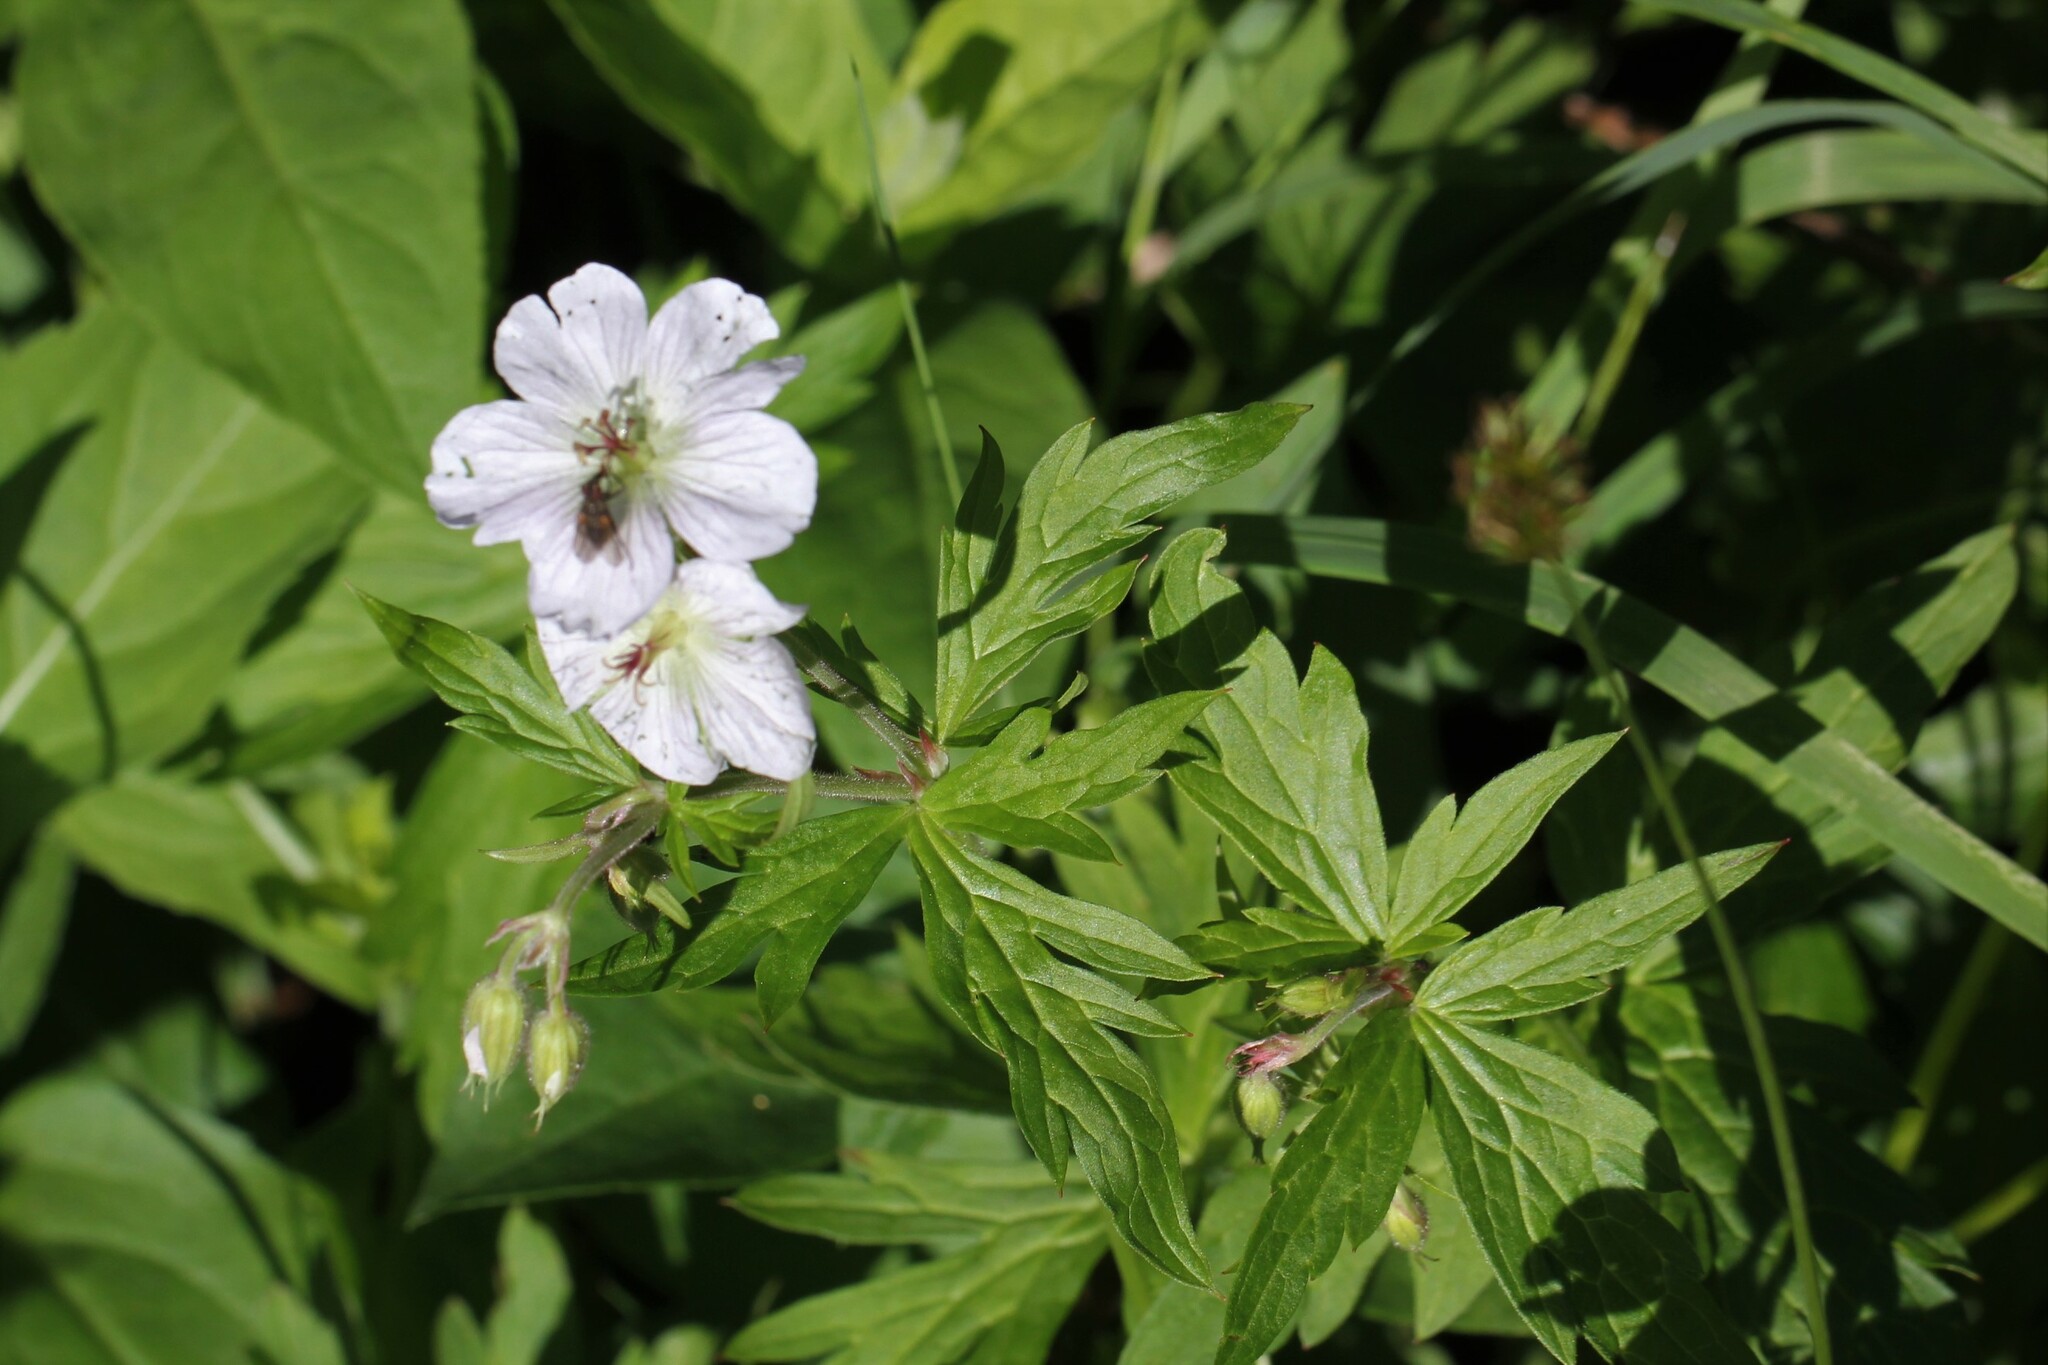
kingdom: Plantae
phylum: Tracheophyta
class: Magnoliopsida
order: Geraniales
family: Geraniaceae
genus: Geranium
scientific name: Geranium richardsonii
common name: Richardson's crane's-bill
